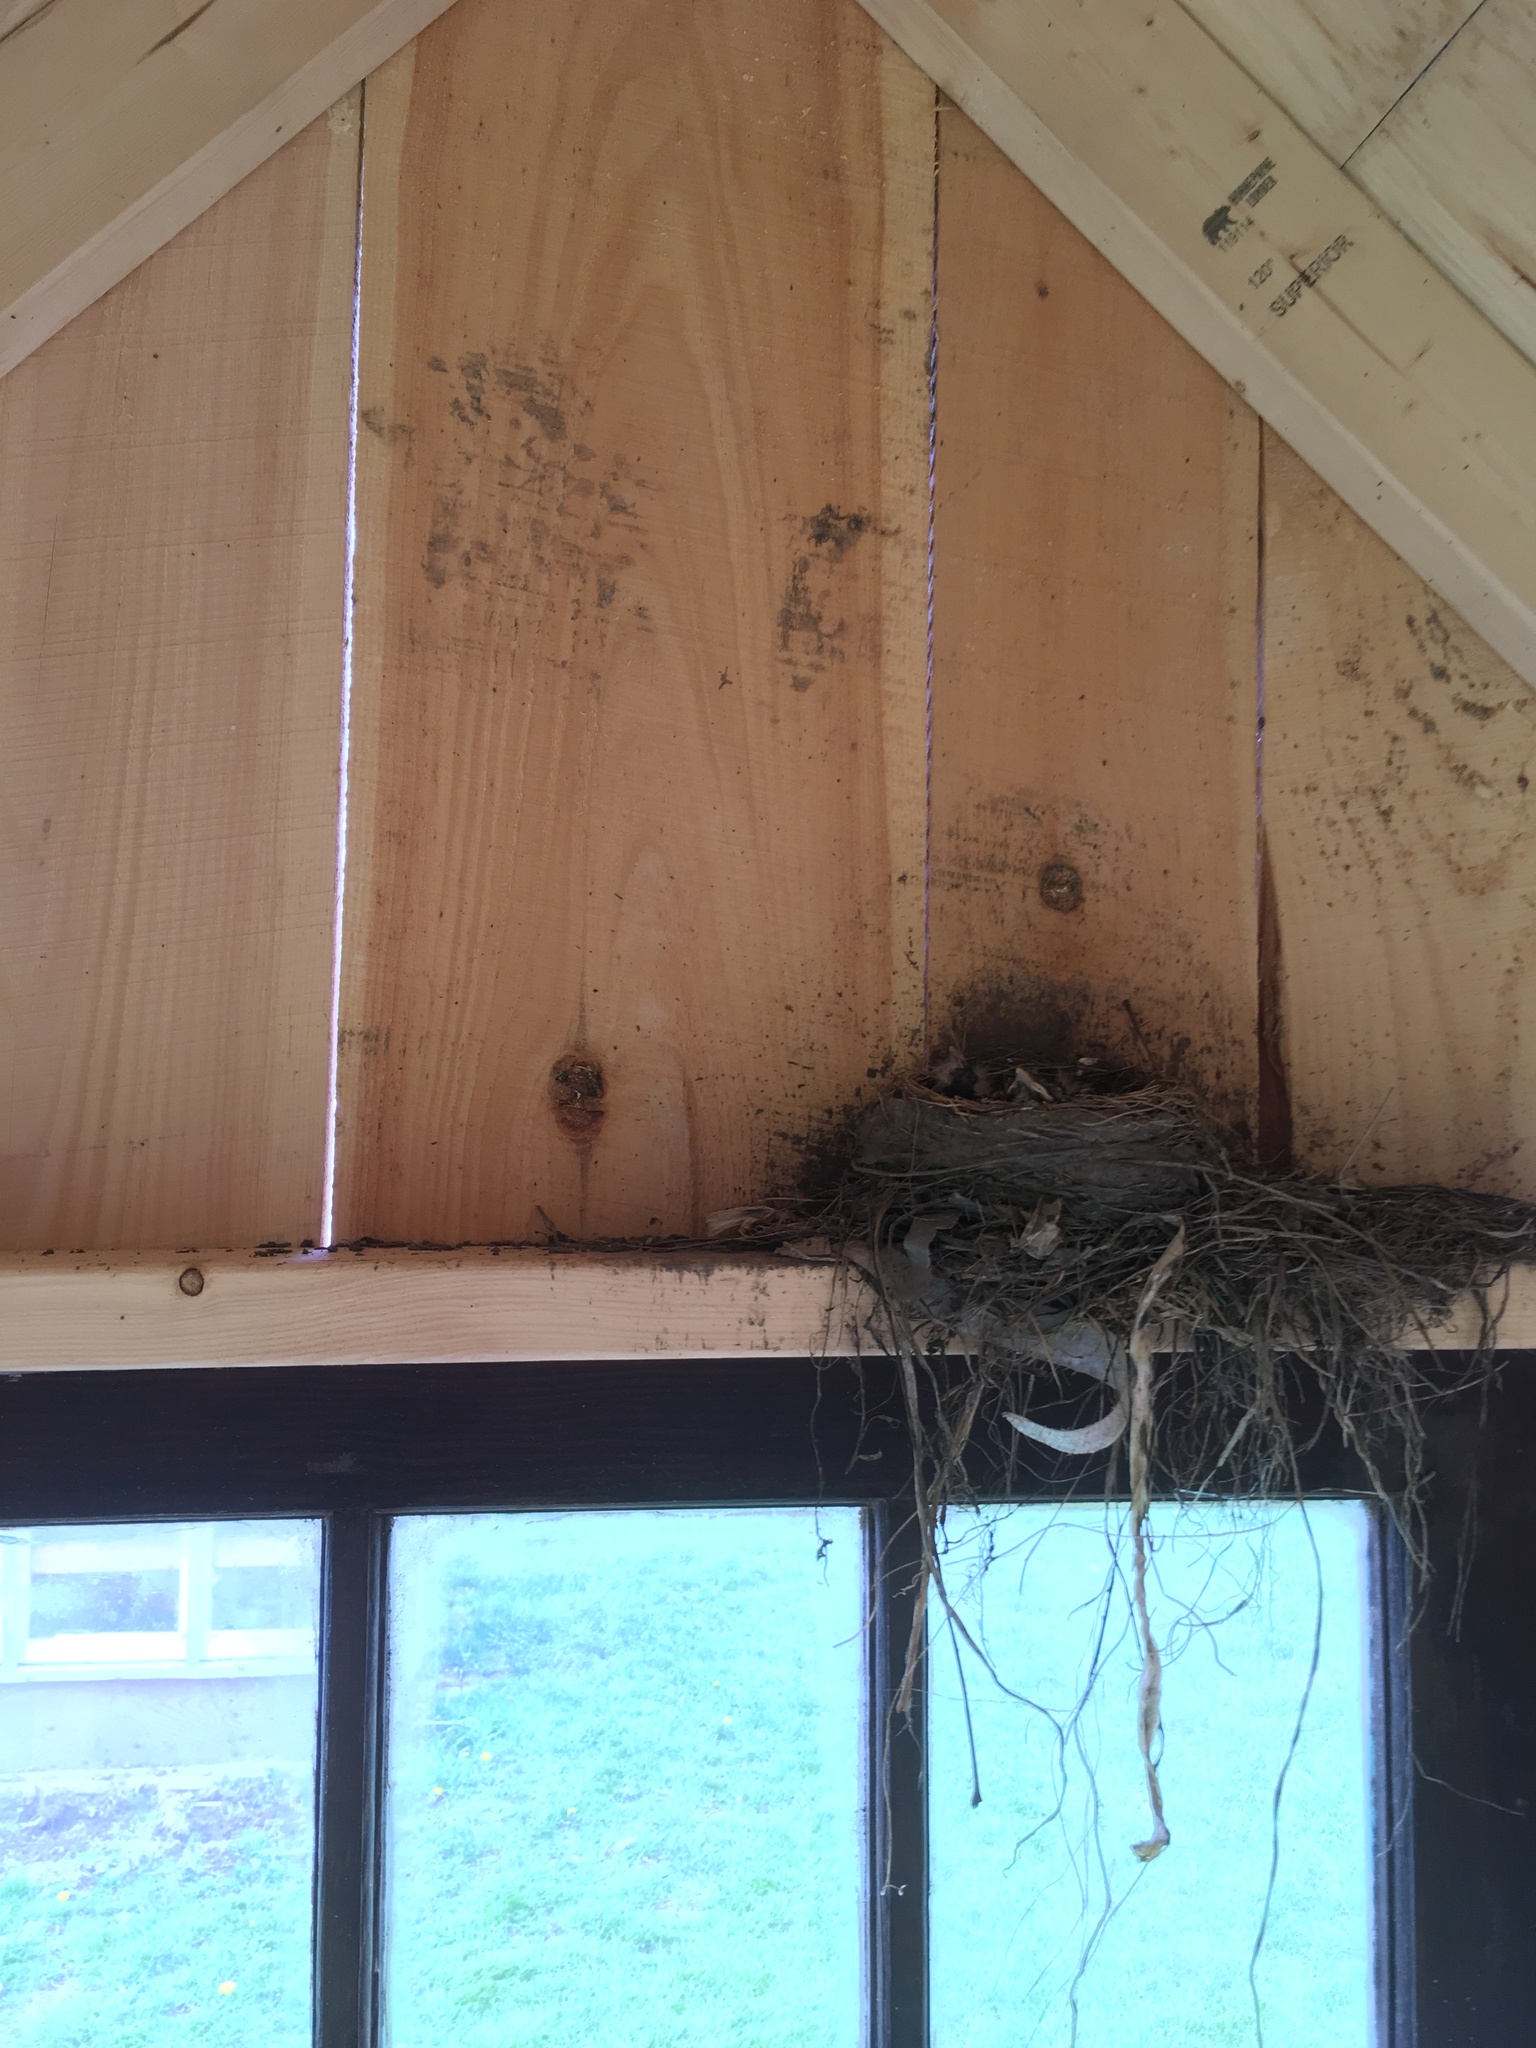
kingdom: Animalia
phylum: Chordata
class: Aves
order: Passeriformes
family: Turdidae
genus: Turdus
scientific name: Turdus migratorius
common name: American robin
